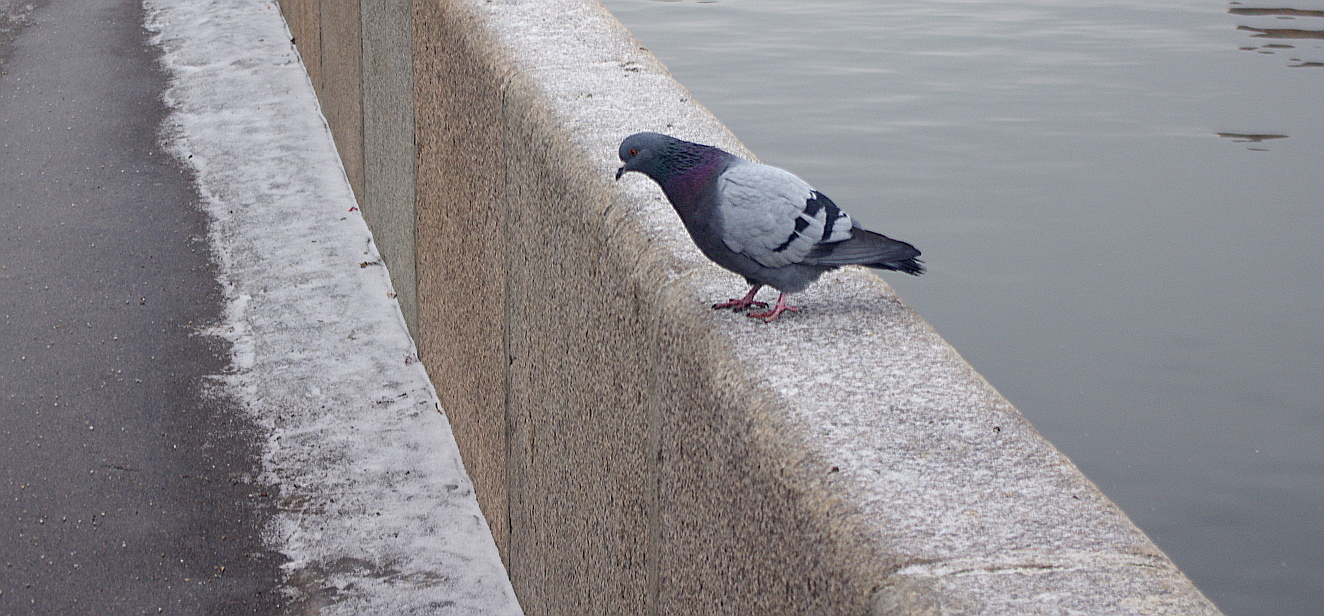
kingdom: Animalia
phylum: Chordata
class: Aves
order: Columbiformes
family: Columbidae
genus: Columba
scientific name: Columba livia
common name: Rock pigeon
